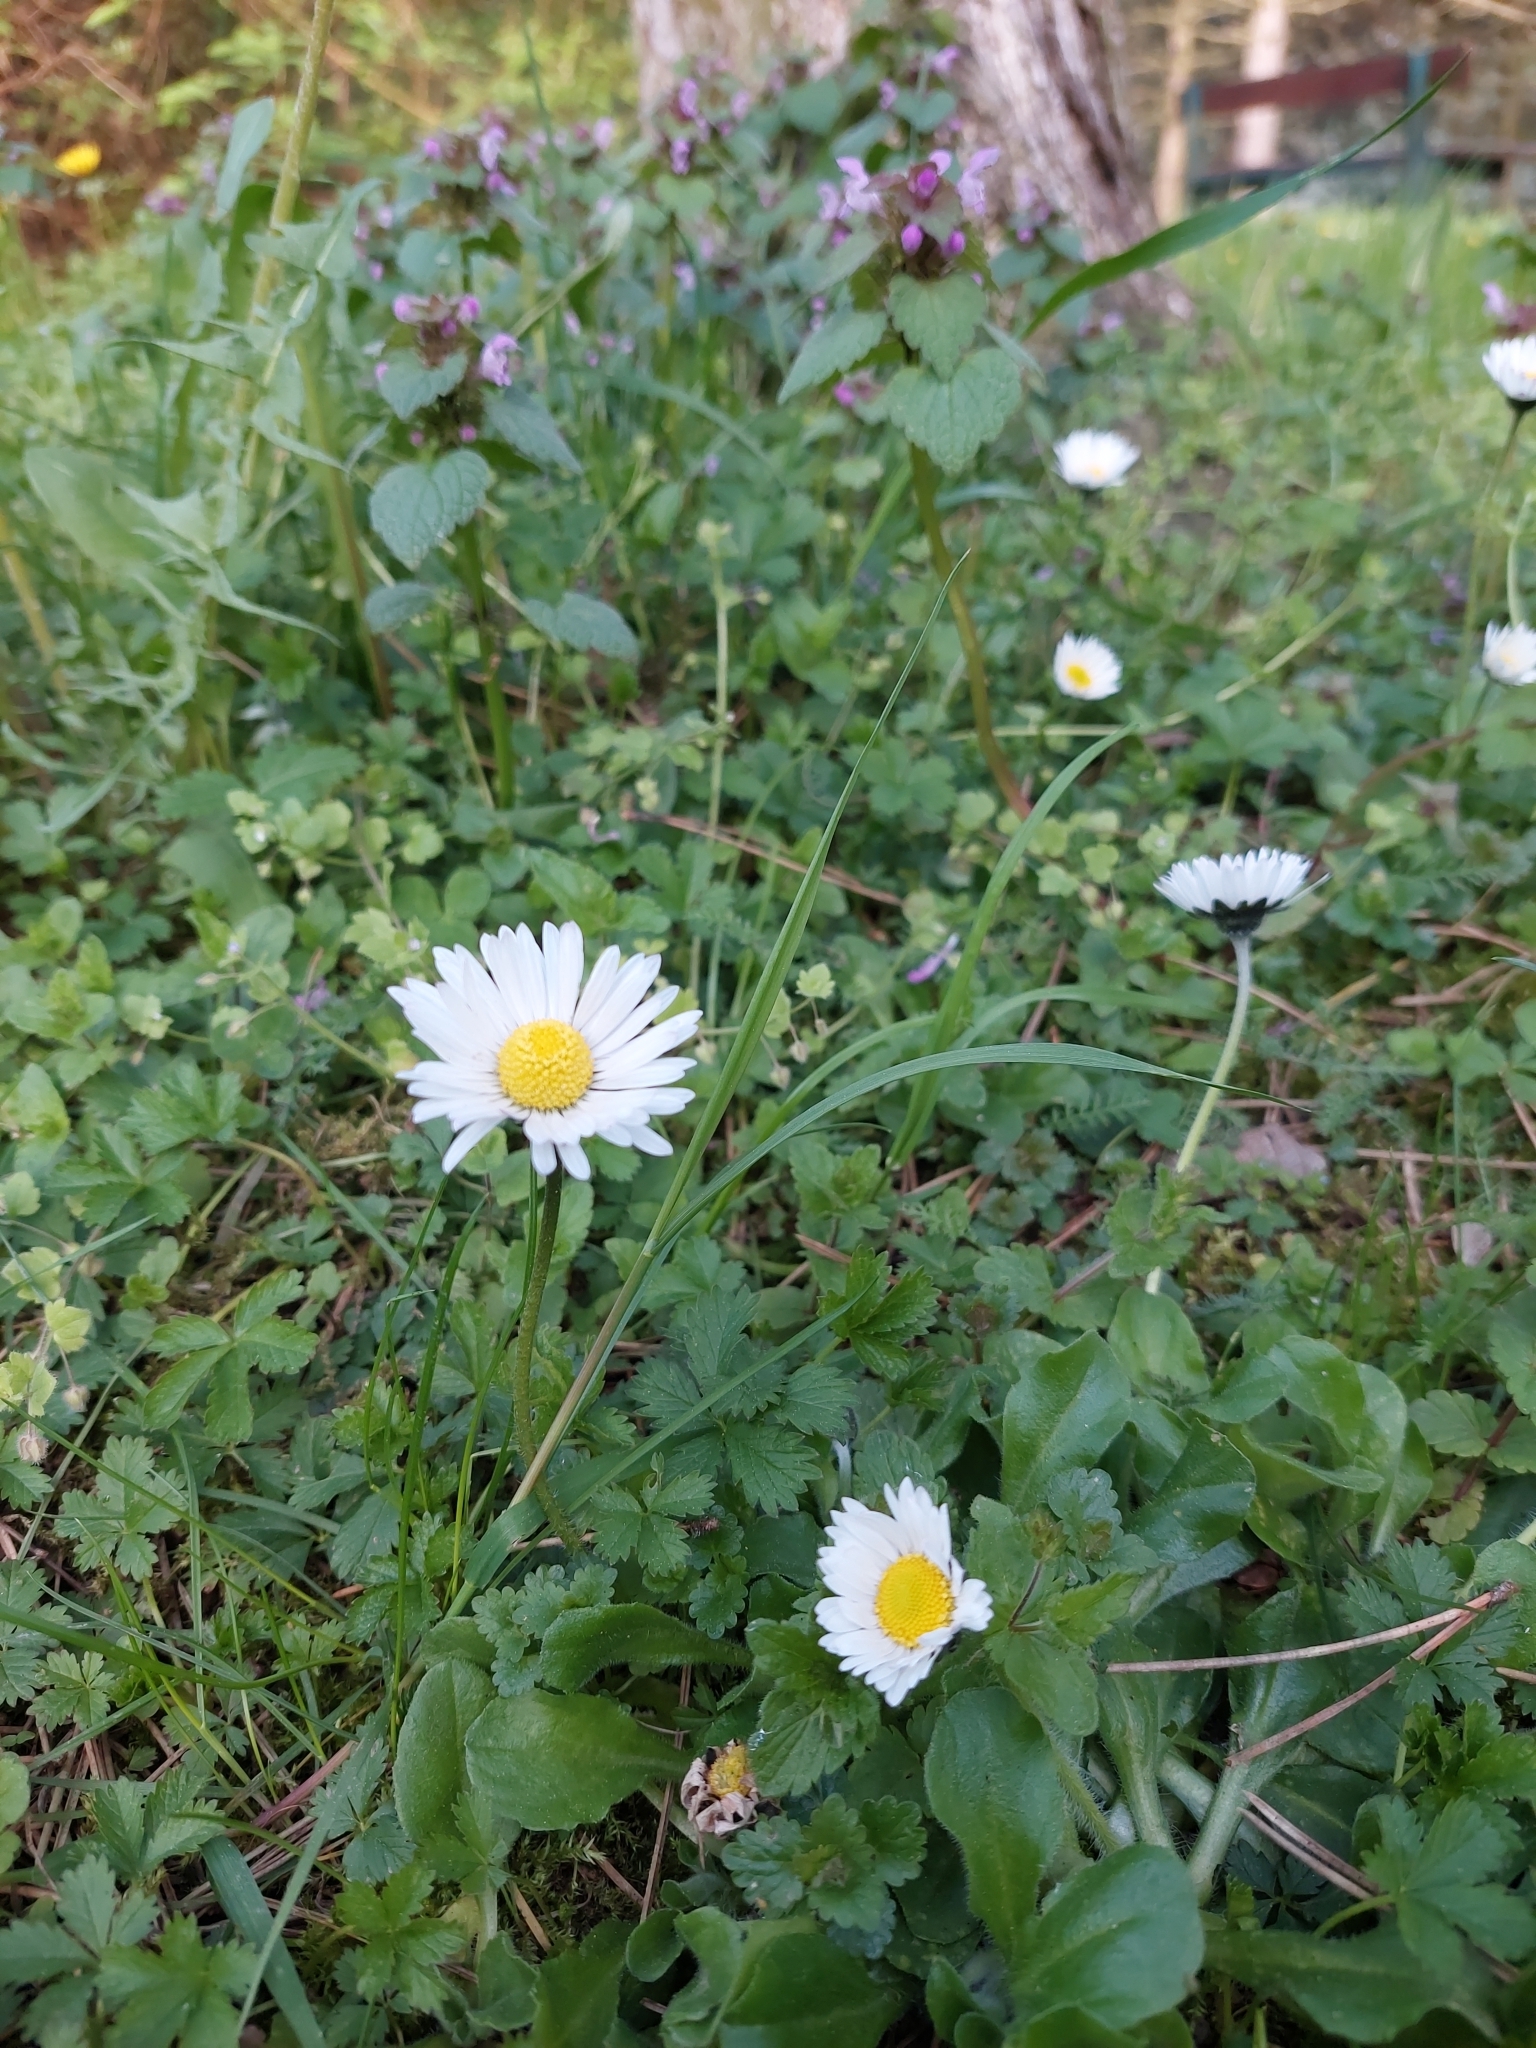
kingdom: Plantae
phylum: Tracheophyta
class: Magnoliopsida
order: Asterales
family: Asteraceae
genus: Bellis
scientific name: Bellis perennis
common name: Lawndaisy
